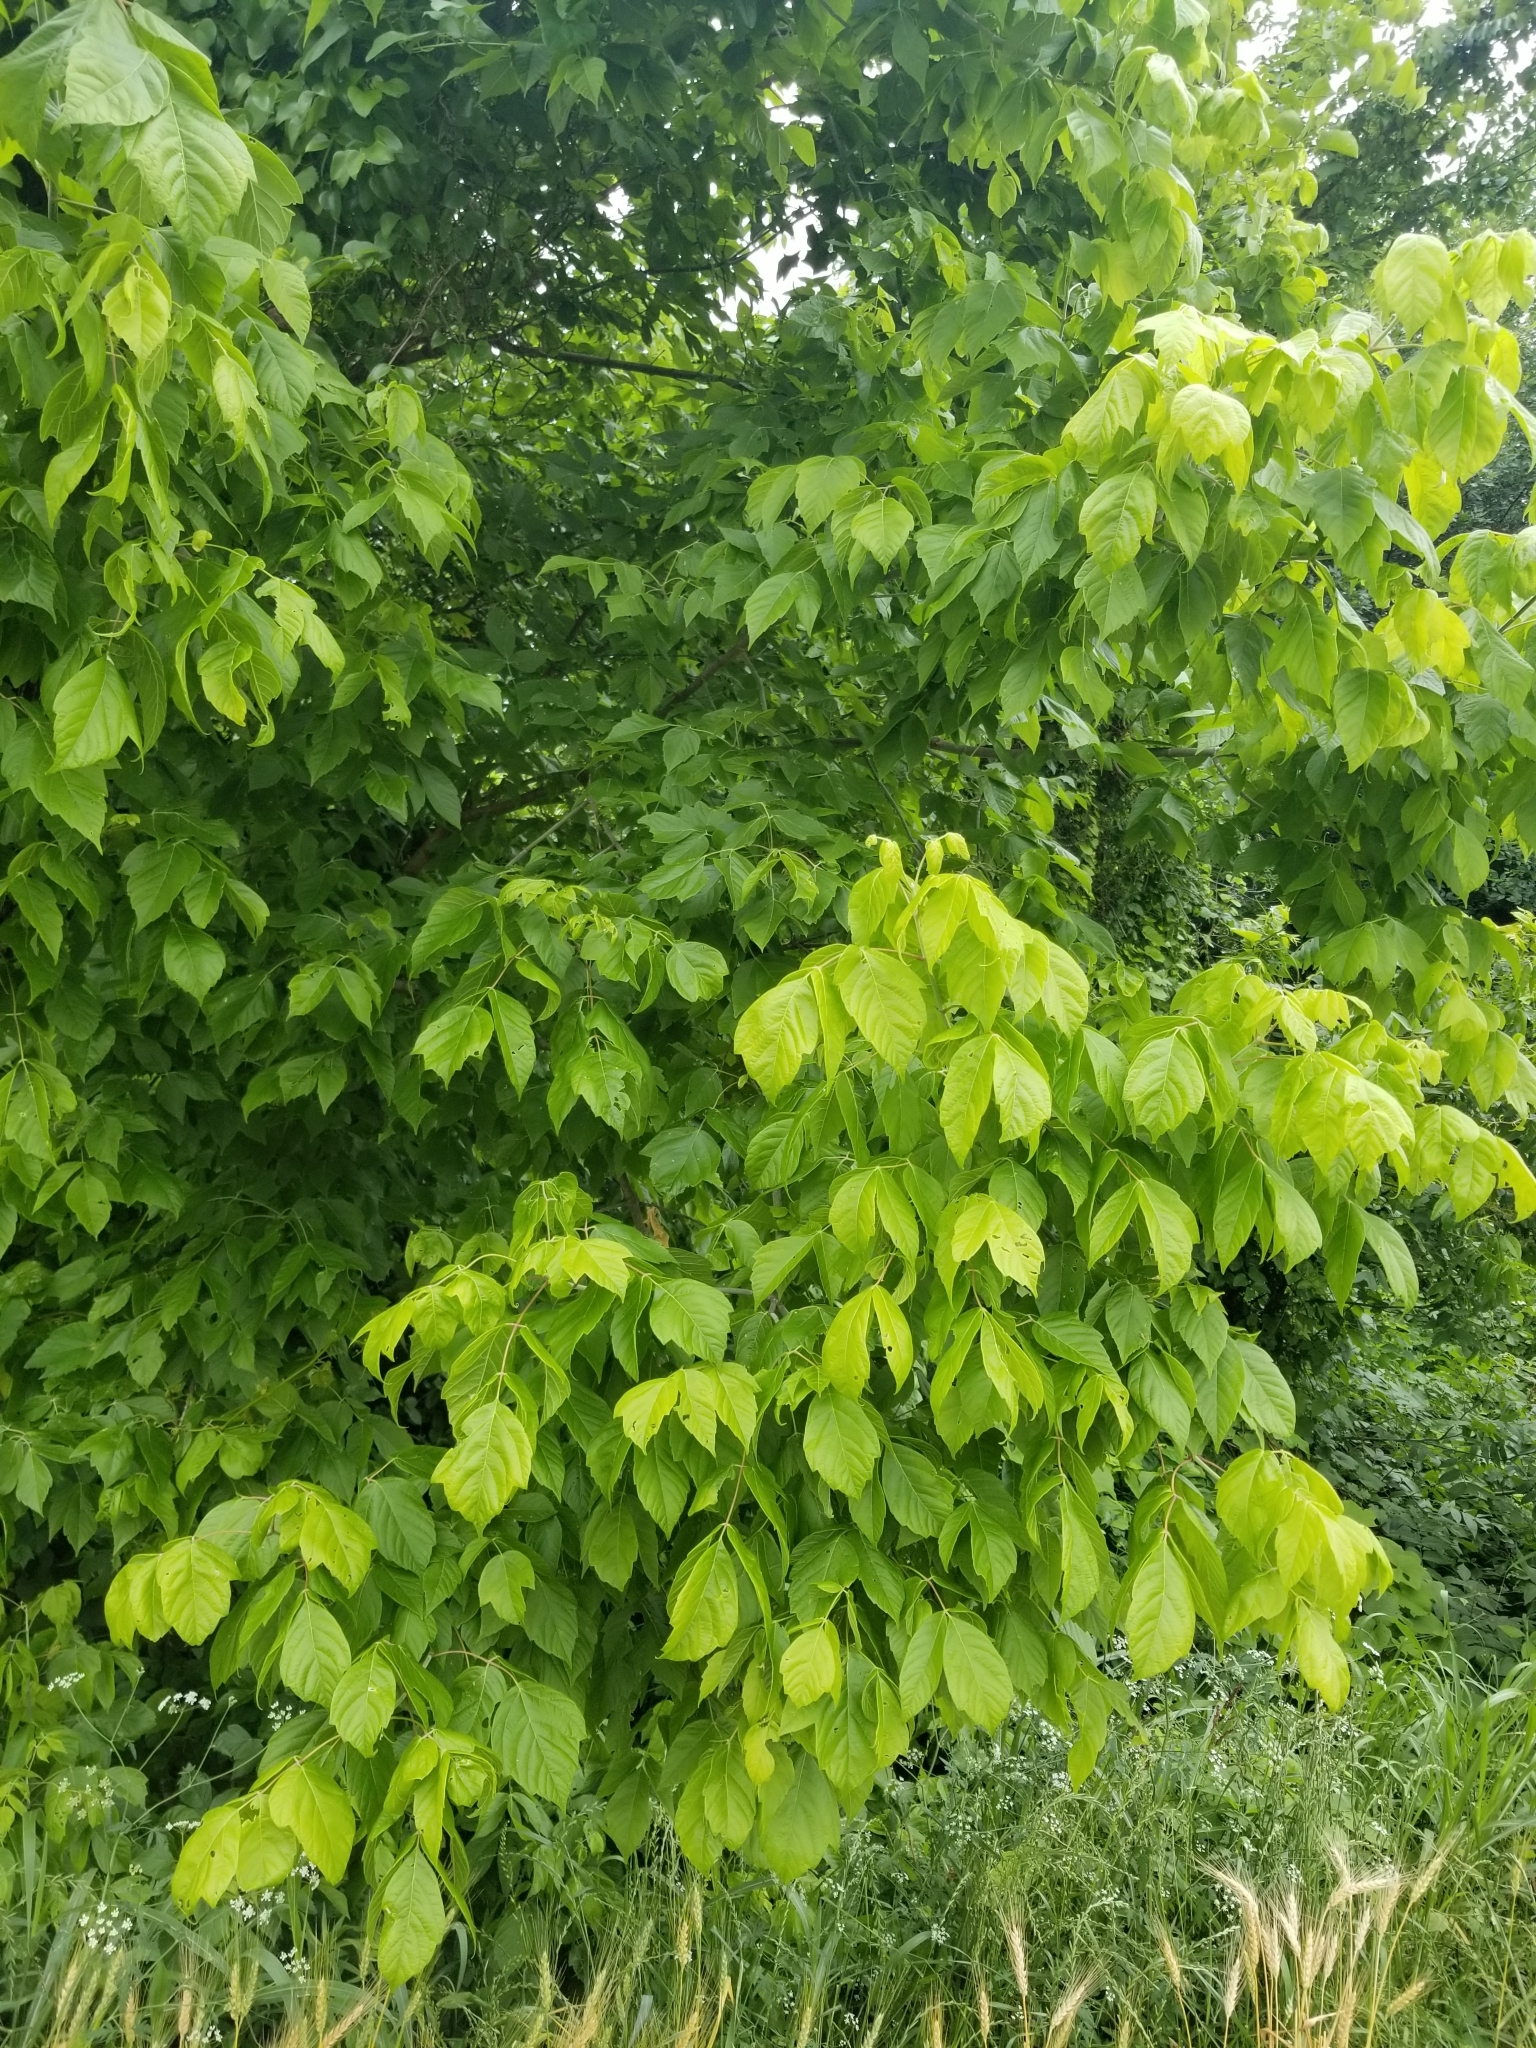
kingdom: Plantae
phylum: Tracheophyta
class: Magnoliopsida
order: Sapindales
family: Sapindaceae
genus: Acer
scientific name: Acer negundo
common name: Ashleaf maple
